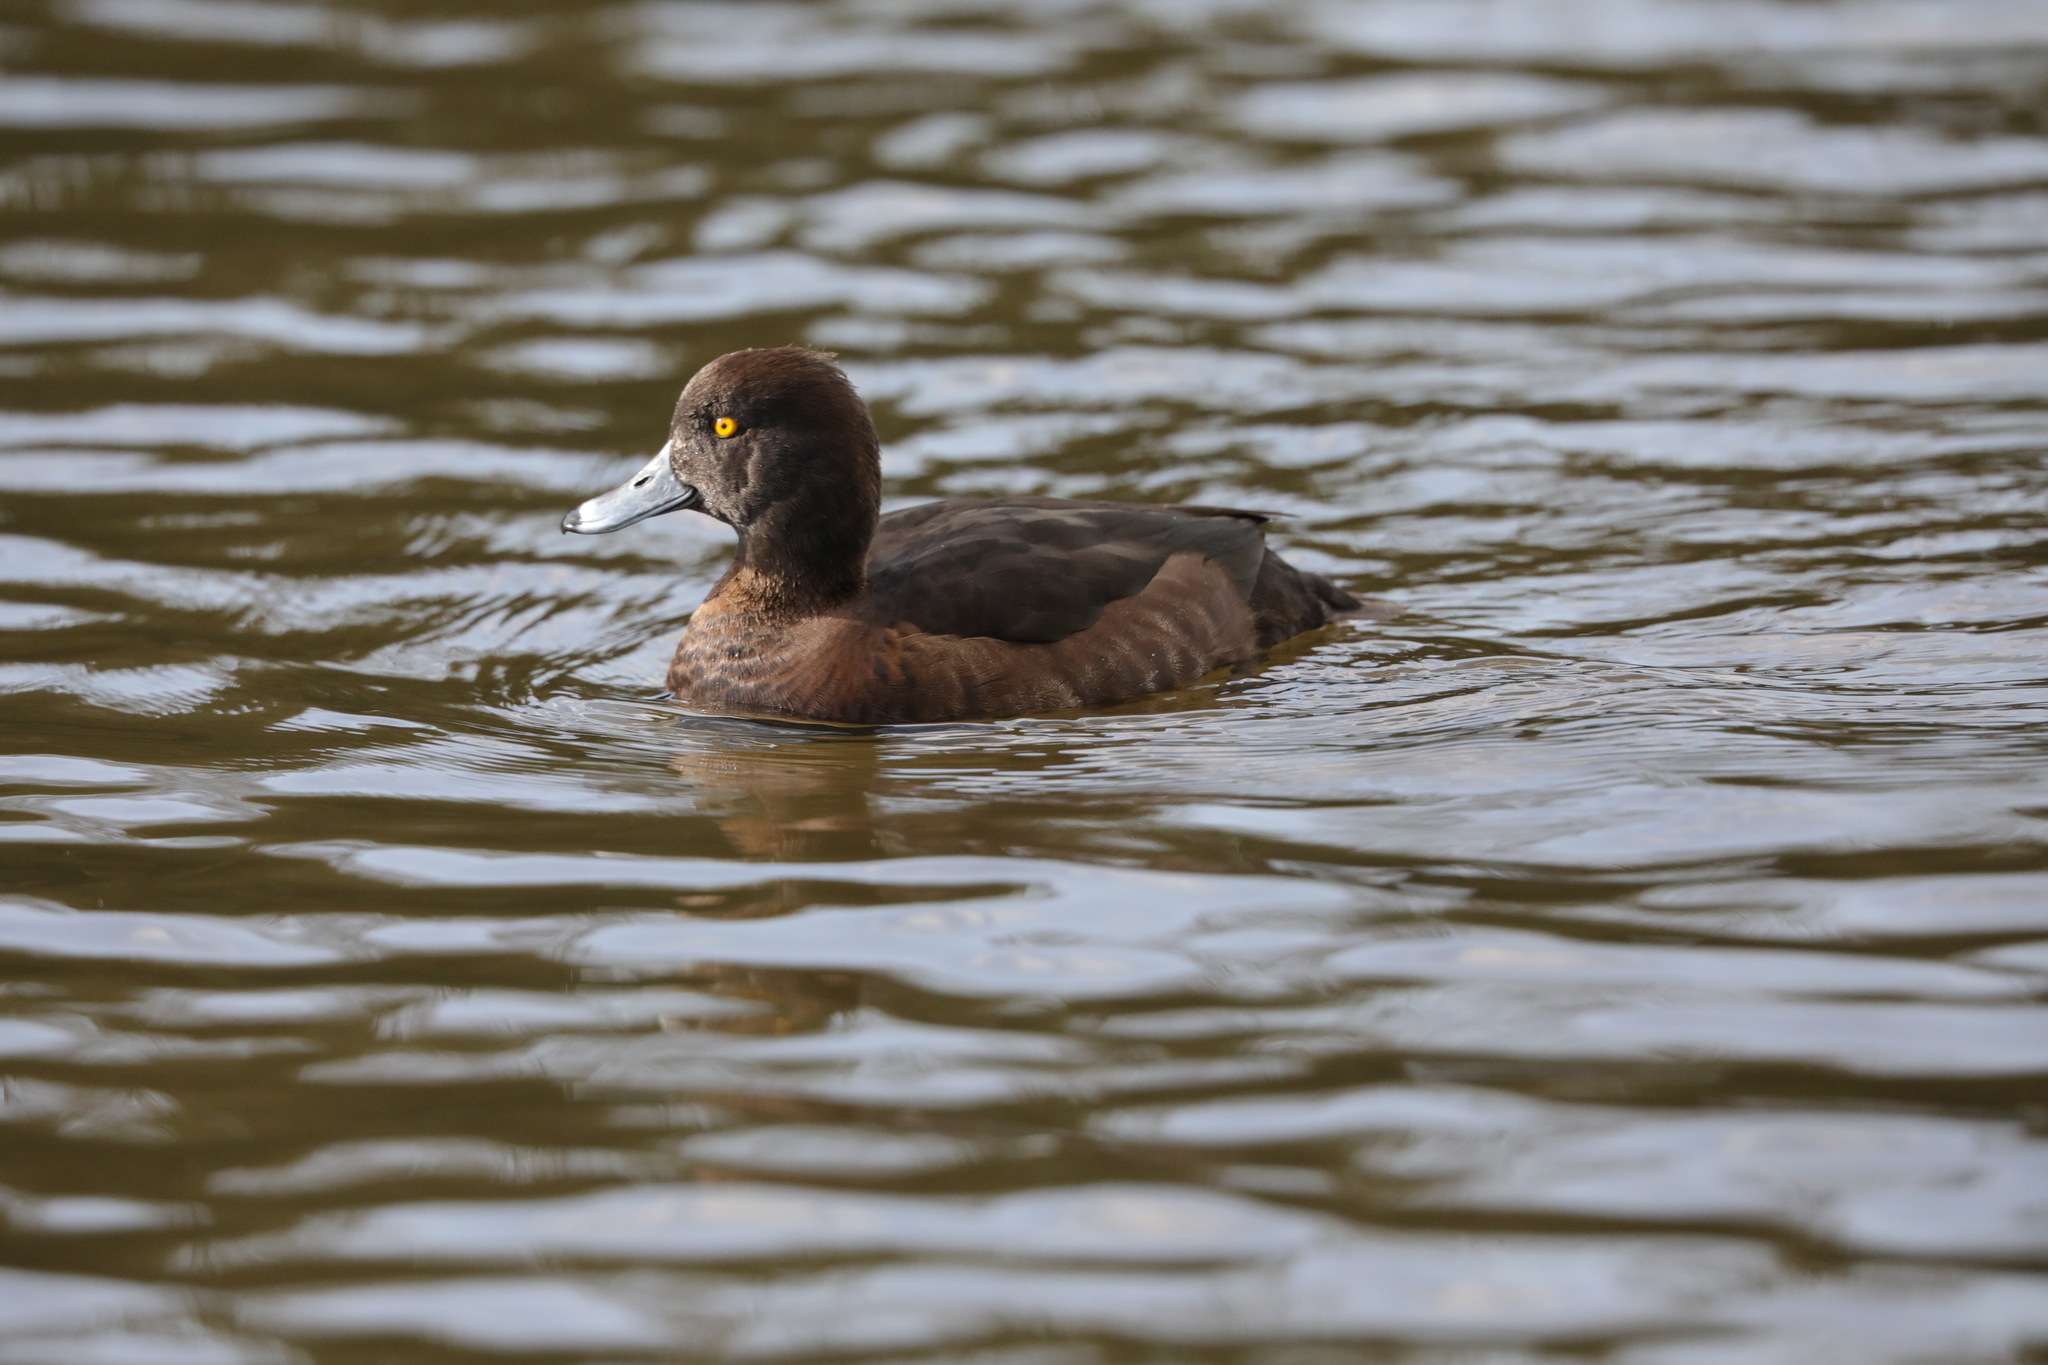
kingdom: Animalia
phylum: Chordata
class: Aves
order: Anseriformes
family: Anatidae
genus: Aythya
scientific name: Aythya fuligula
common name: Tufted duck
